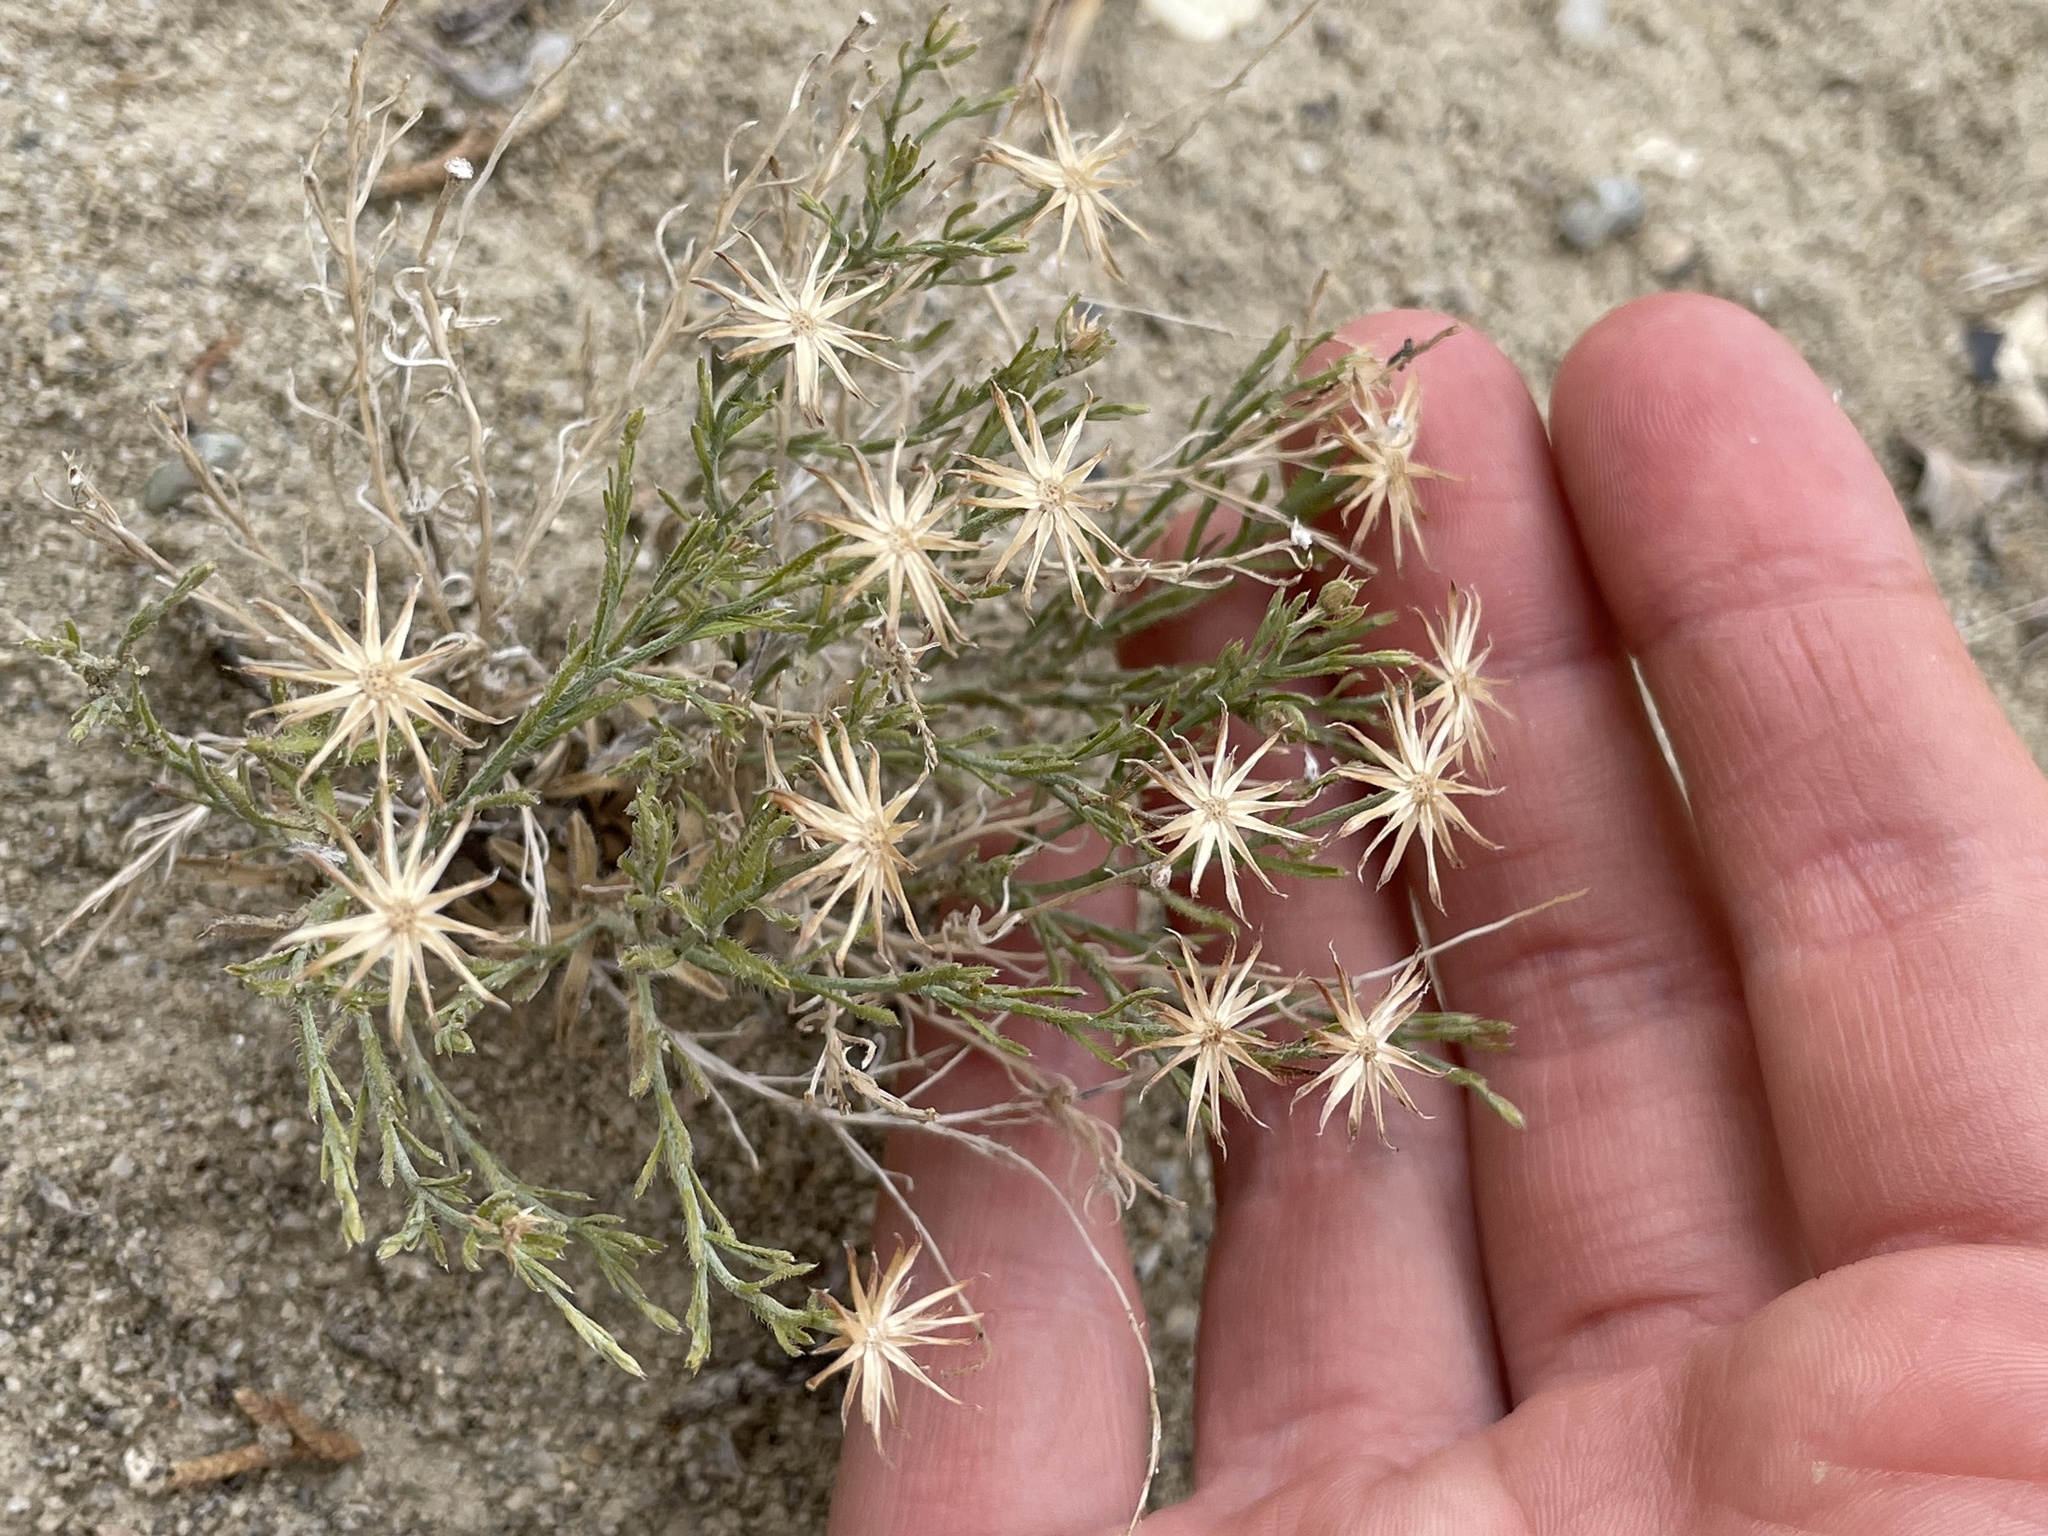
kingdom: Plantae
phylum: Tracheophyta
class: Magnoliopsida
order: Asterales
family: Asteraceae
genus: Chaetopappa
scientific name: Chaetopappa ericoides
